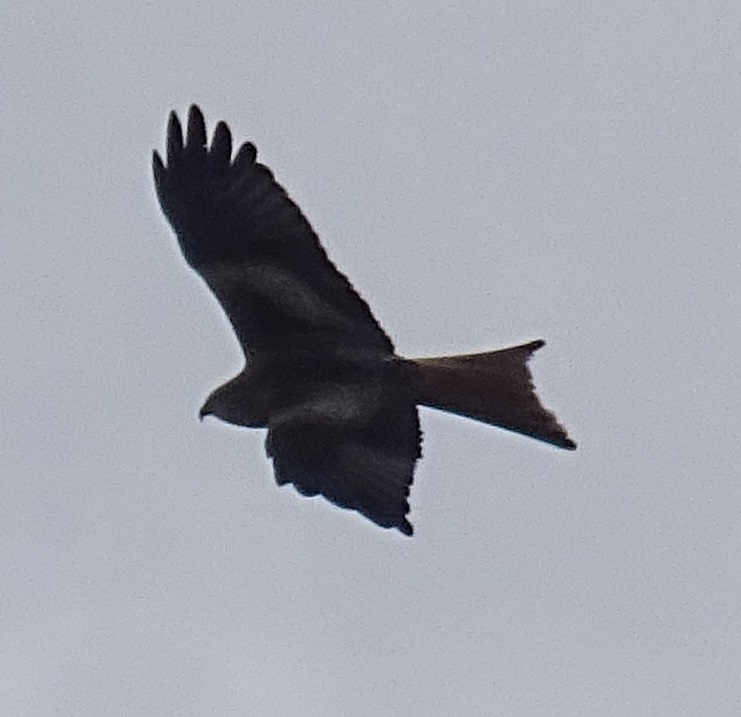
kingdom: Animalia
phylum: Chordata
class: Aves
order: Accipitriformes
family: Accipitridae
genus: Milvus
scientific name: Milvus milvus
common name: Red kite
